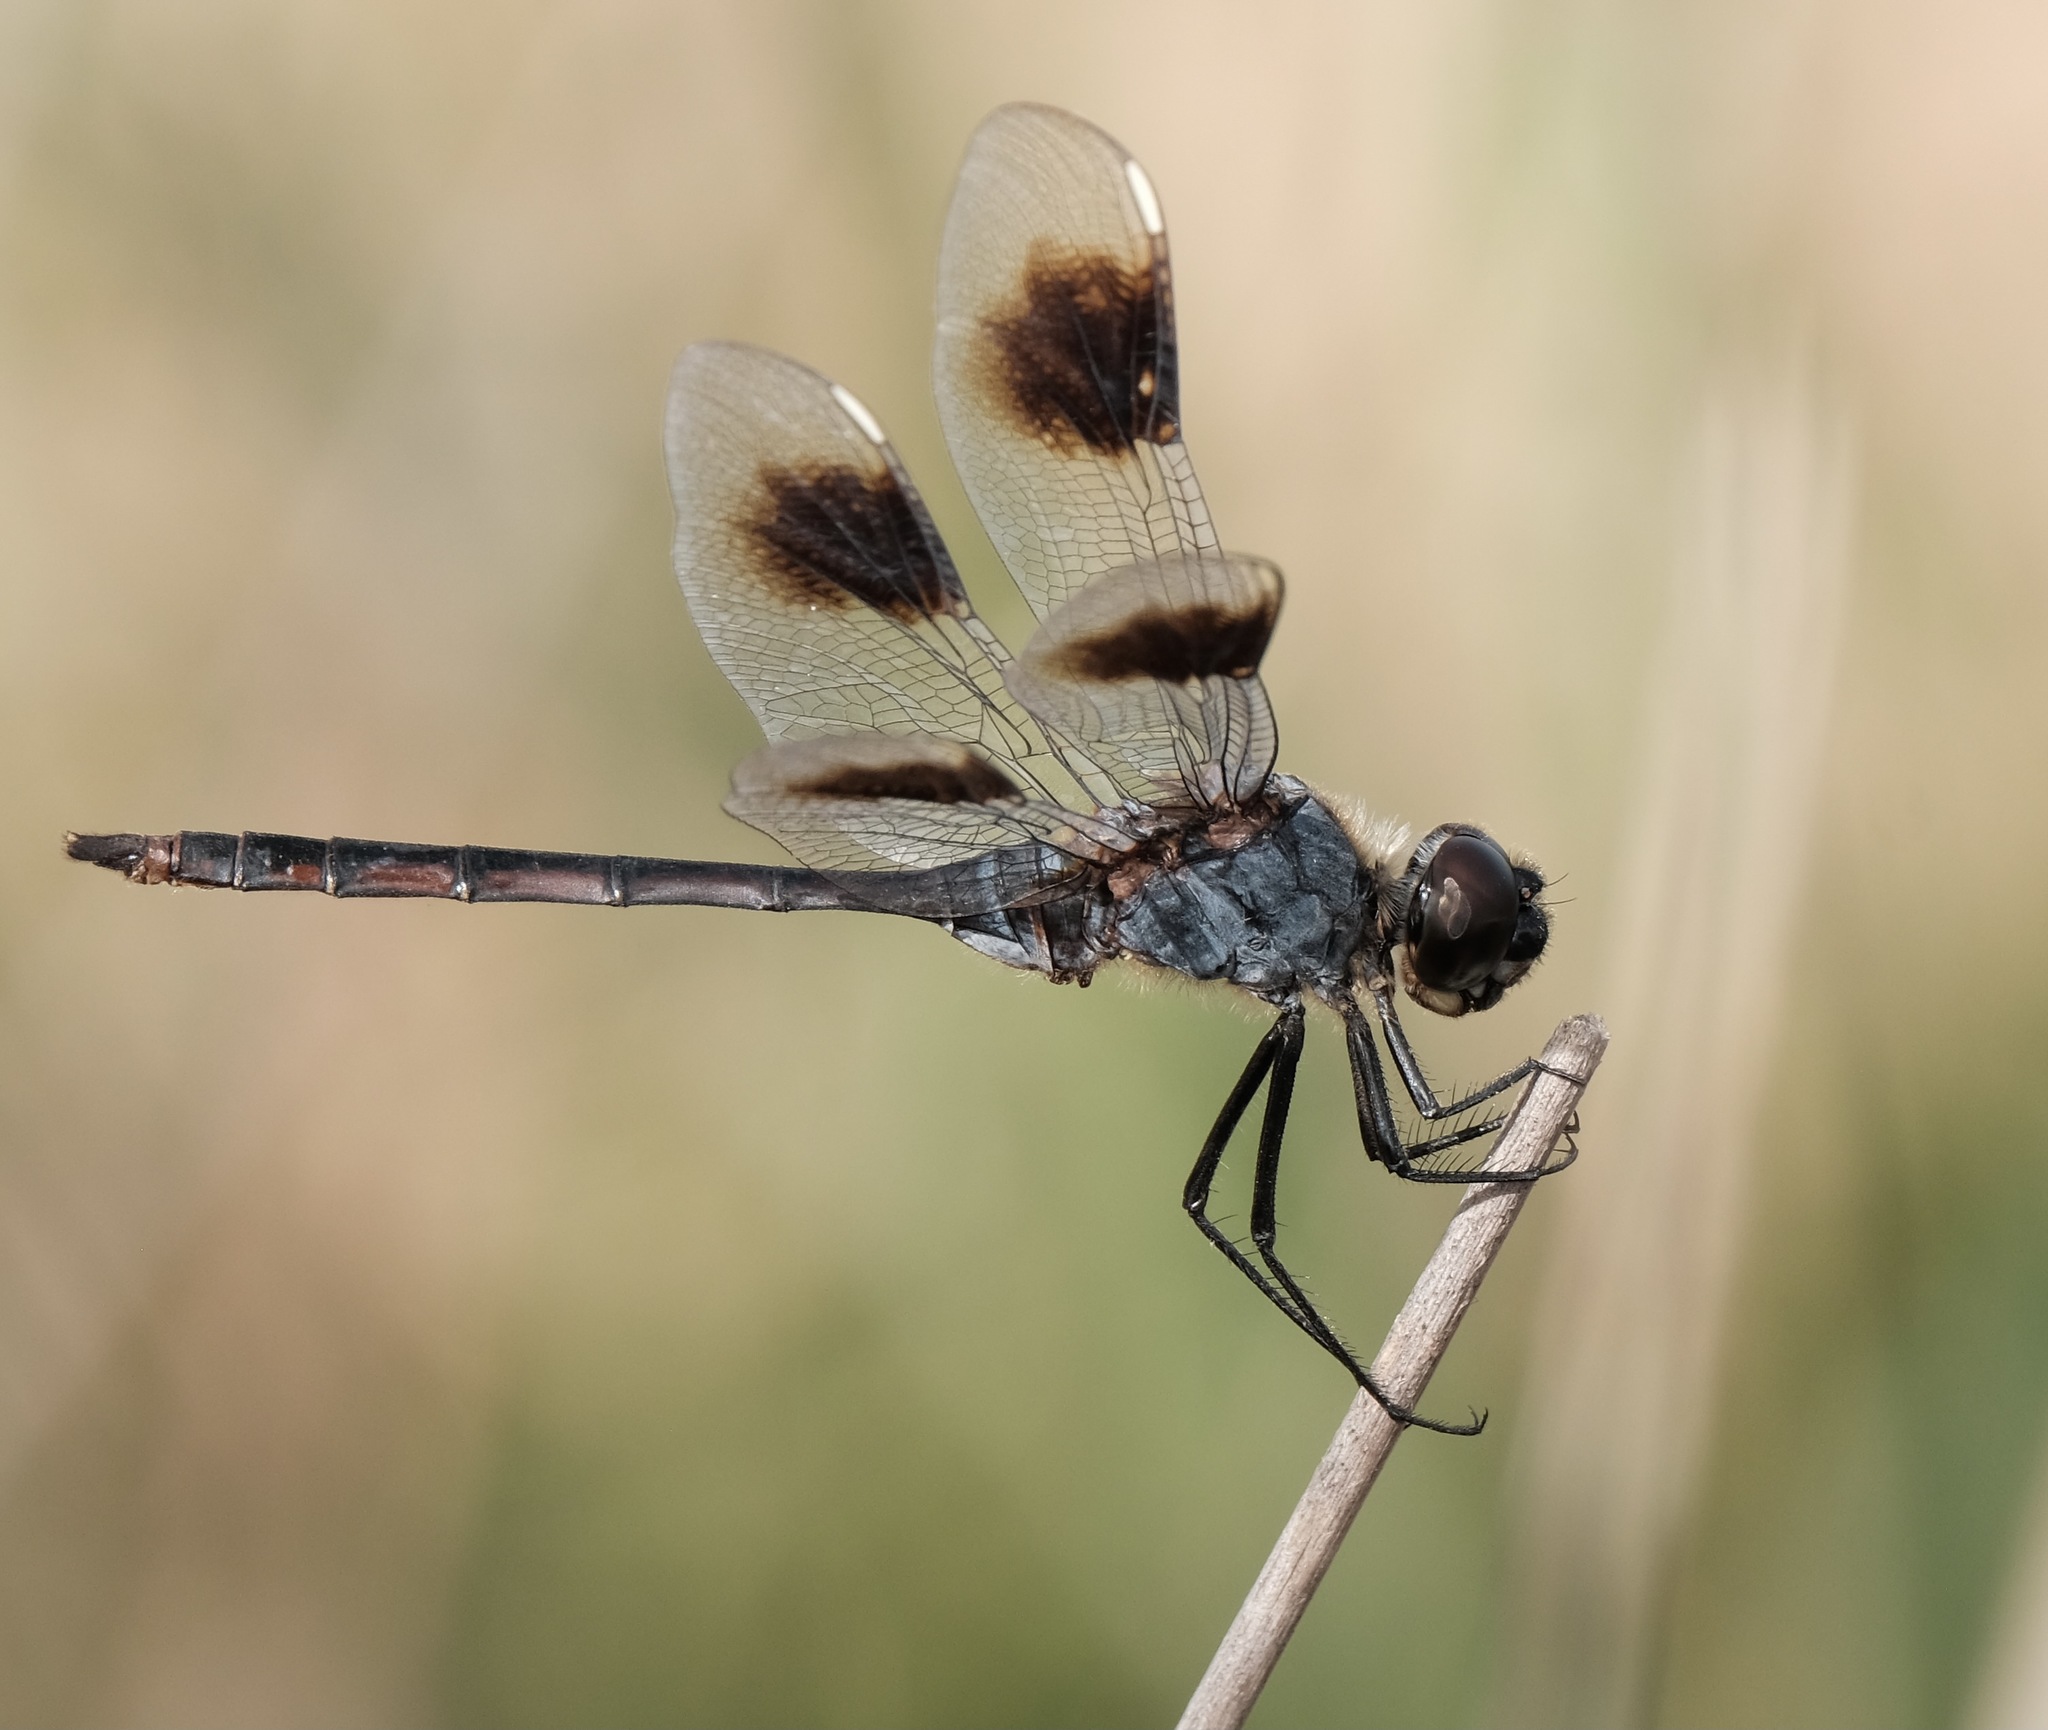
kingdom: Animalia
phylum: Arthropoda
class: Insecta
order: Odonata
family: Libellulidae
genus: Brachymesia
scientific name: Brachymesia gravida
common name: Four-spotted pennant
